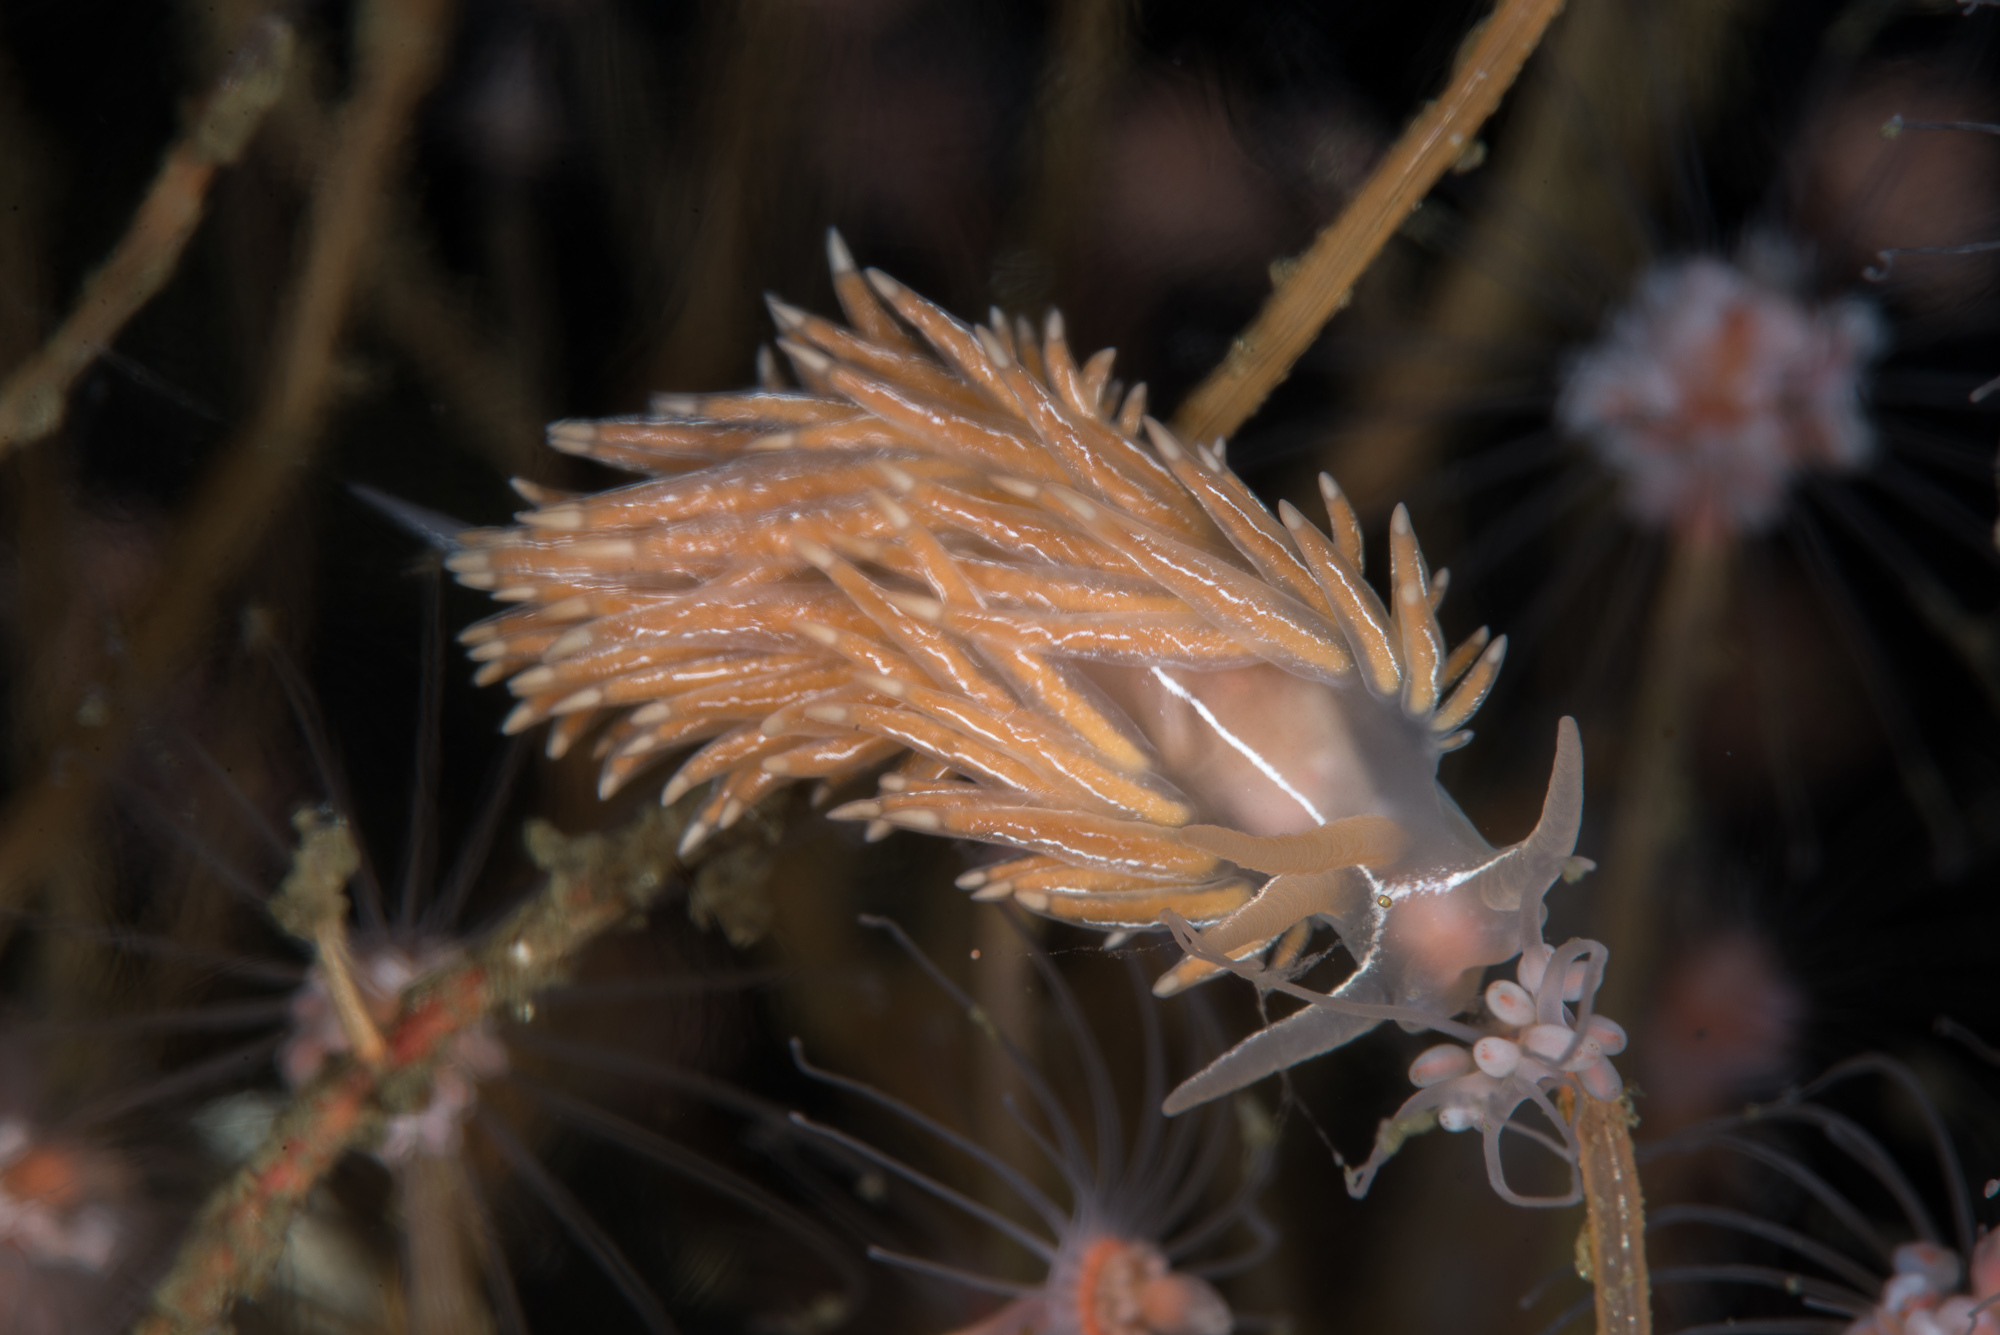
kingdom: Animalia
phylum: Mollusca
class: Gastropoda
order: Nudibranchia
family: Coryphellidae
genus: Coryphella
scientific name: Coryphella chriskaugei
